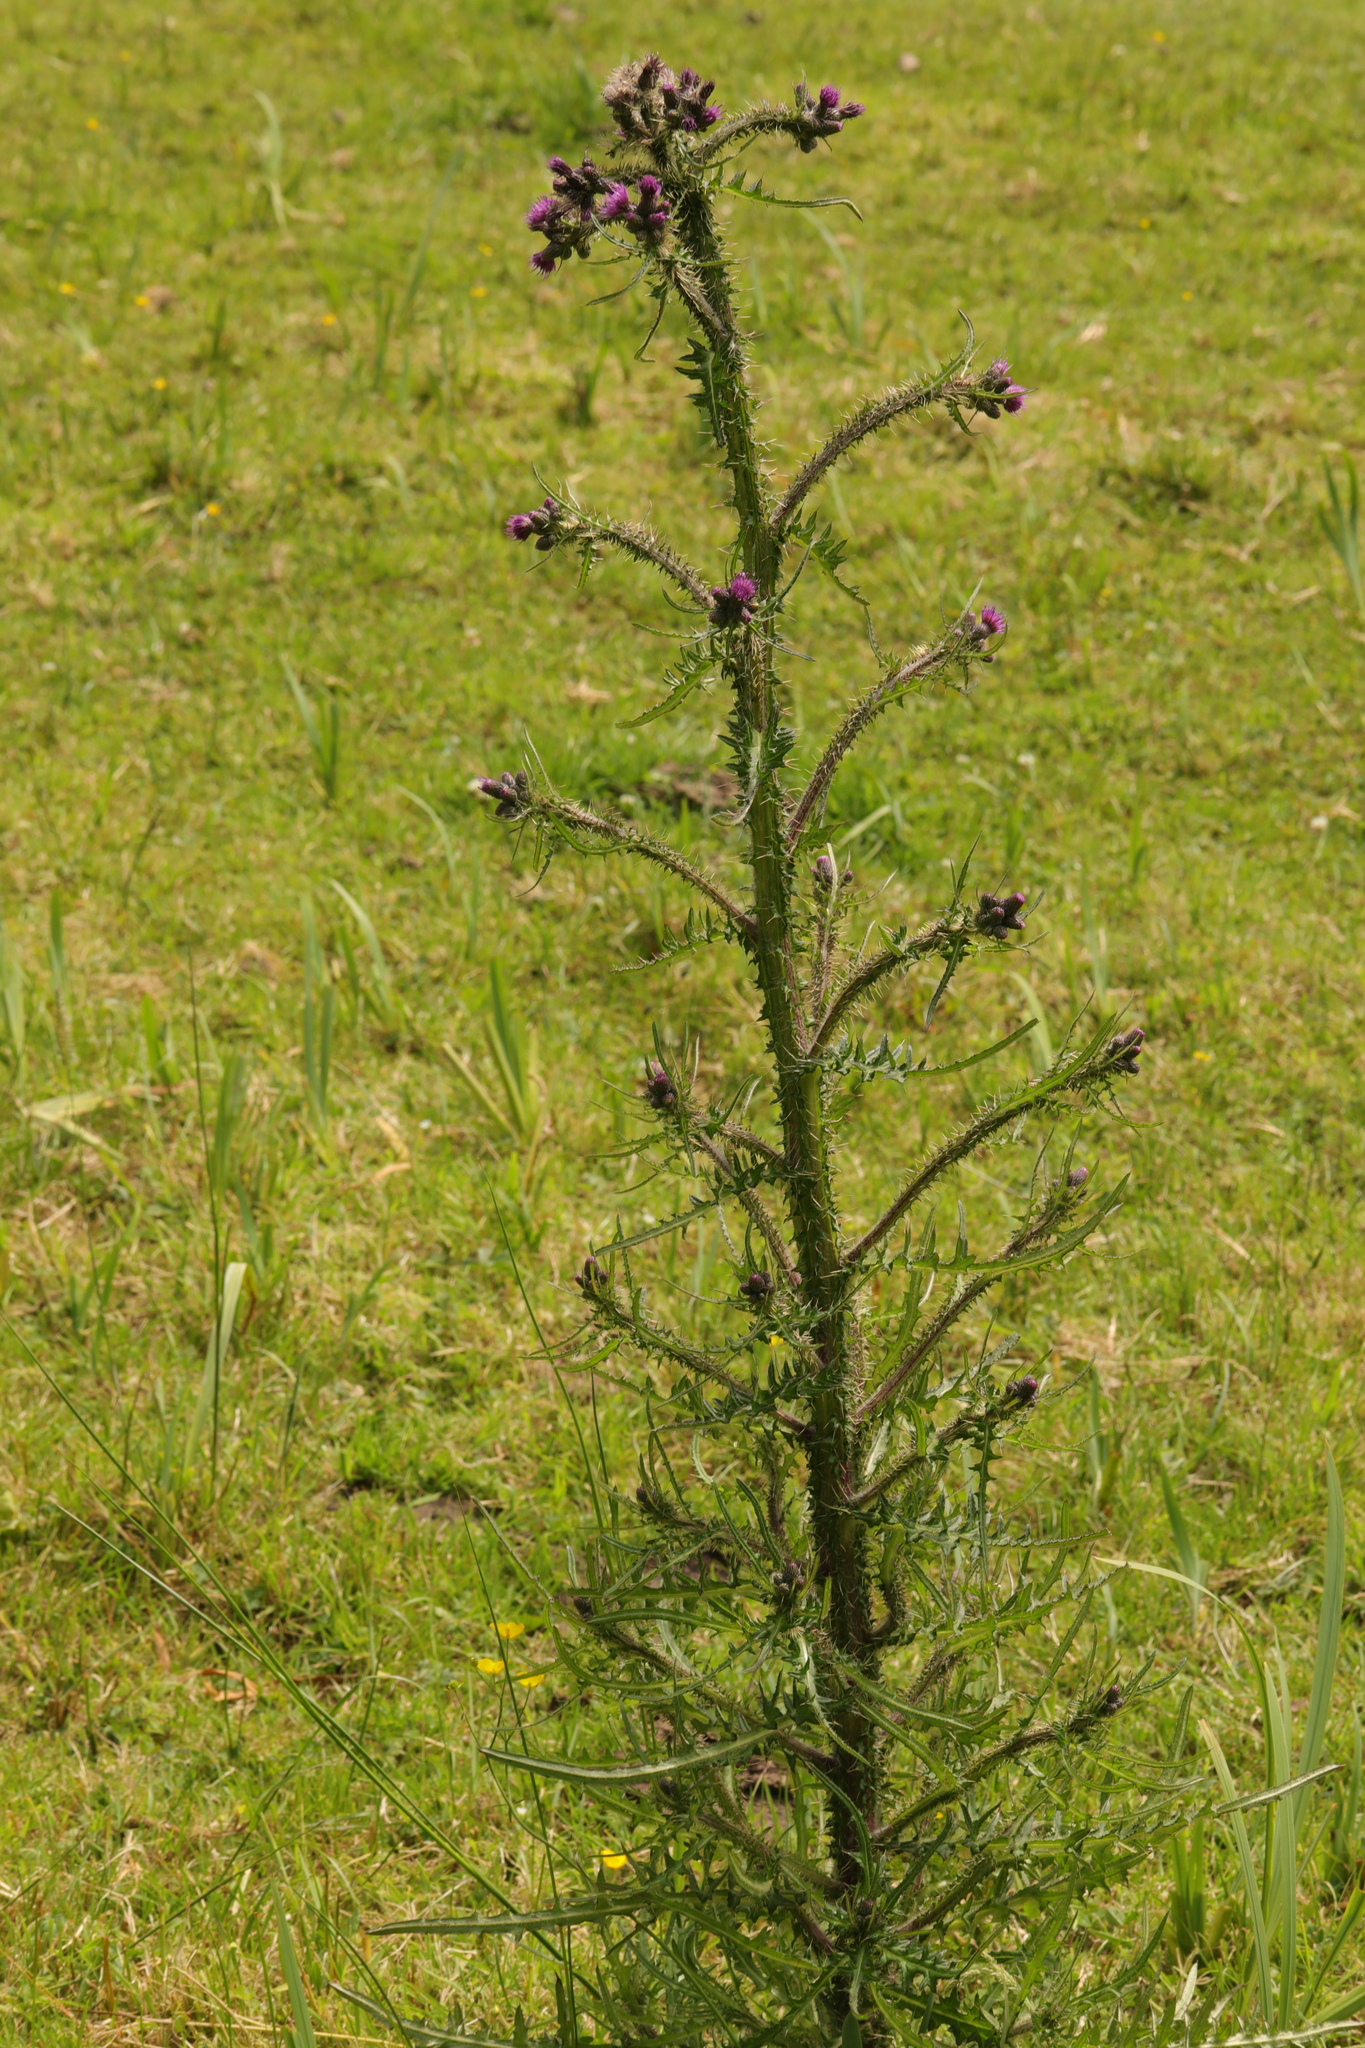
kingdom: Plantae
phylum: Tracheophyta
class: Magnoliopsida
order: Asterales
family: Asteraceae
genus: Cirsium
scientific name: Cirsium palustre
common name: Marsh thistle
